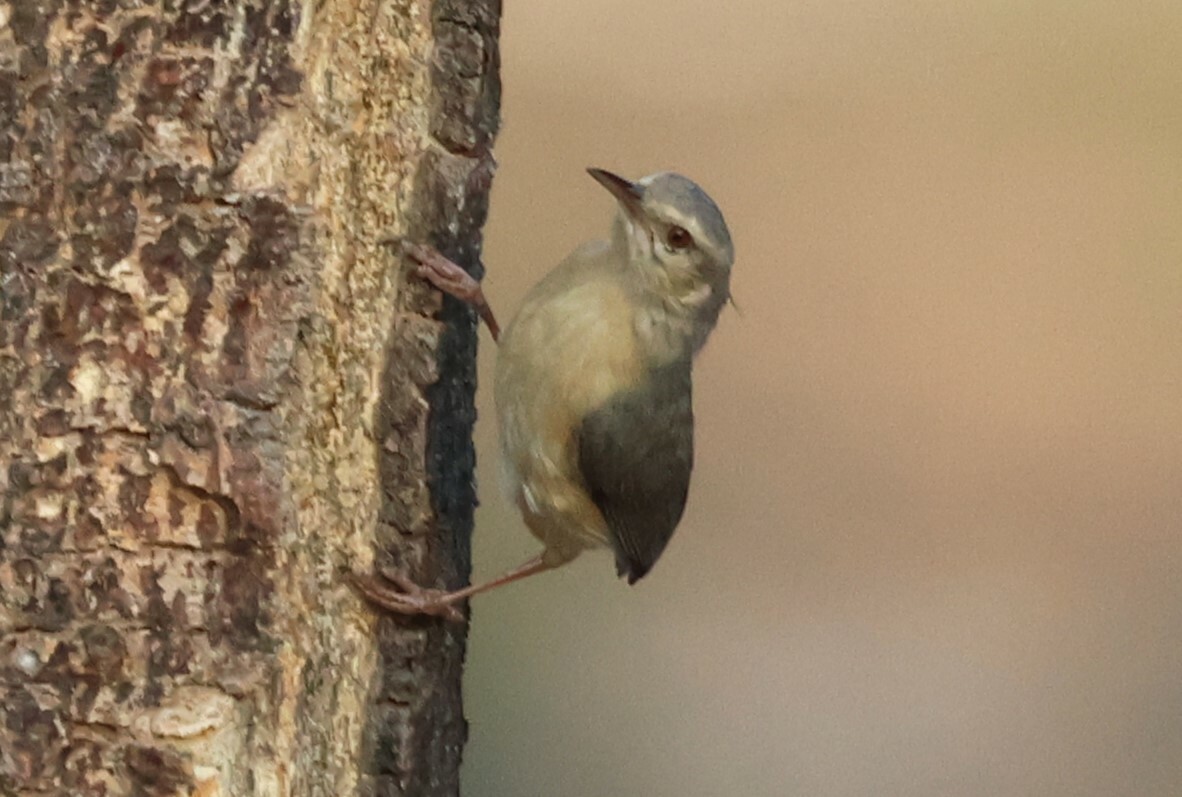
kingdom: Animalia
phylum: Chordata
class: Aves
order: Passeriformes
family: Macrosphenidae
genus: Sylvietta
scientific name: Sylvietta rufescens
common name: Long-billed crombec
